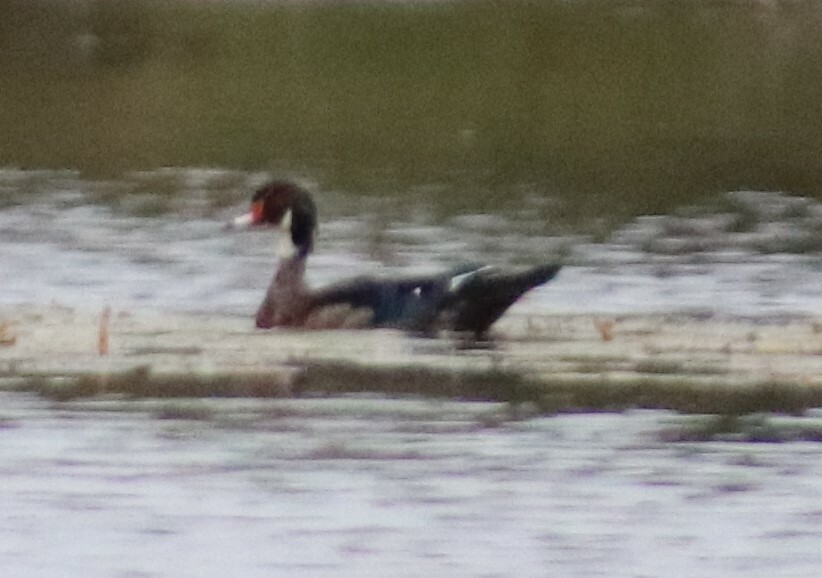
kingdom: Animalia
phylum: Chordata
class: Aves
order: Anseriformes
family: Anatidae
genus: Aix
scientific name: Aix sponsa
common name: Wood duck
